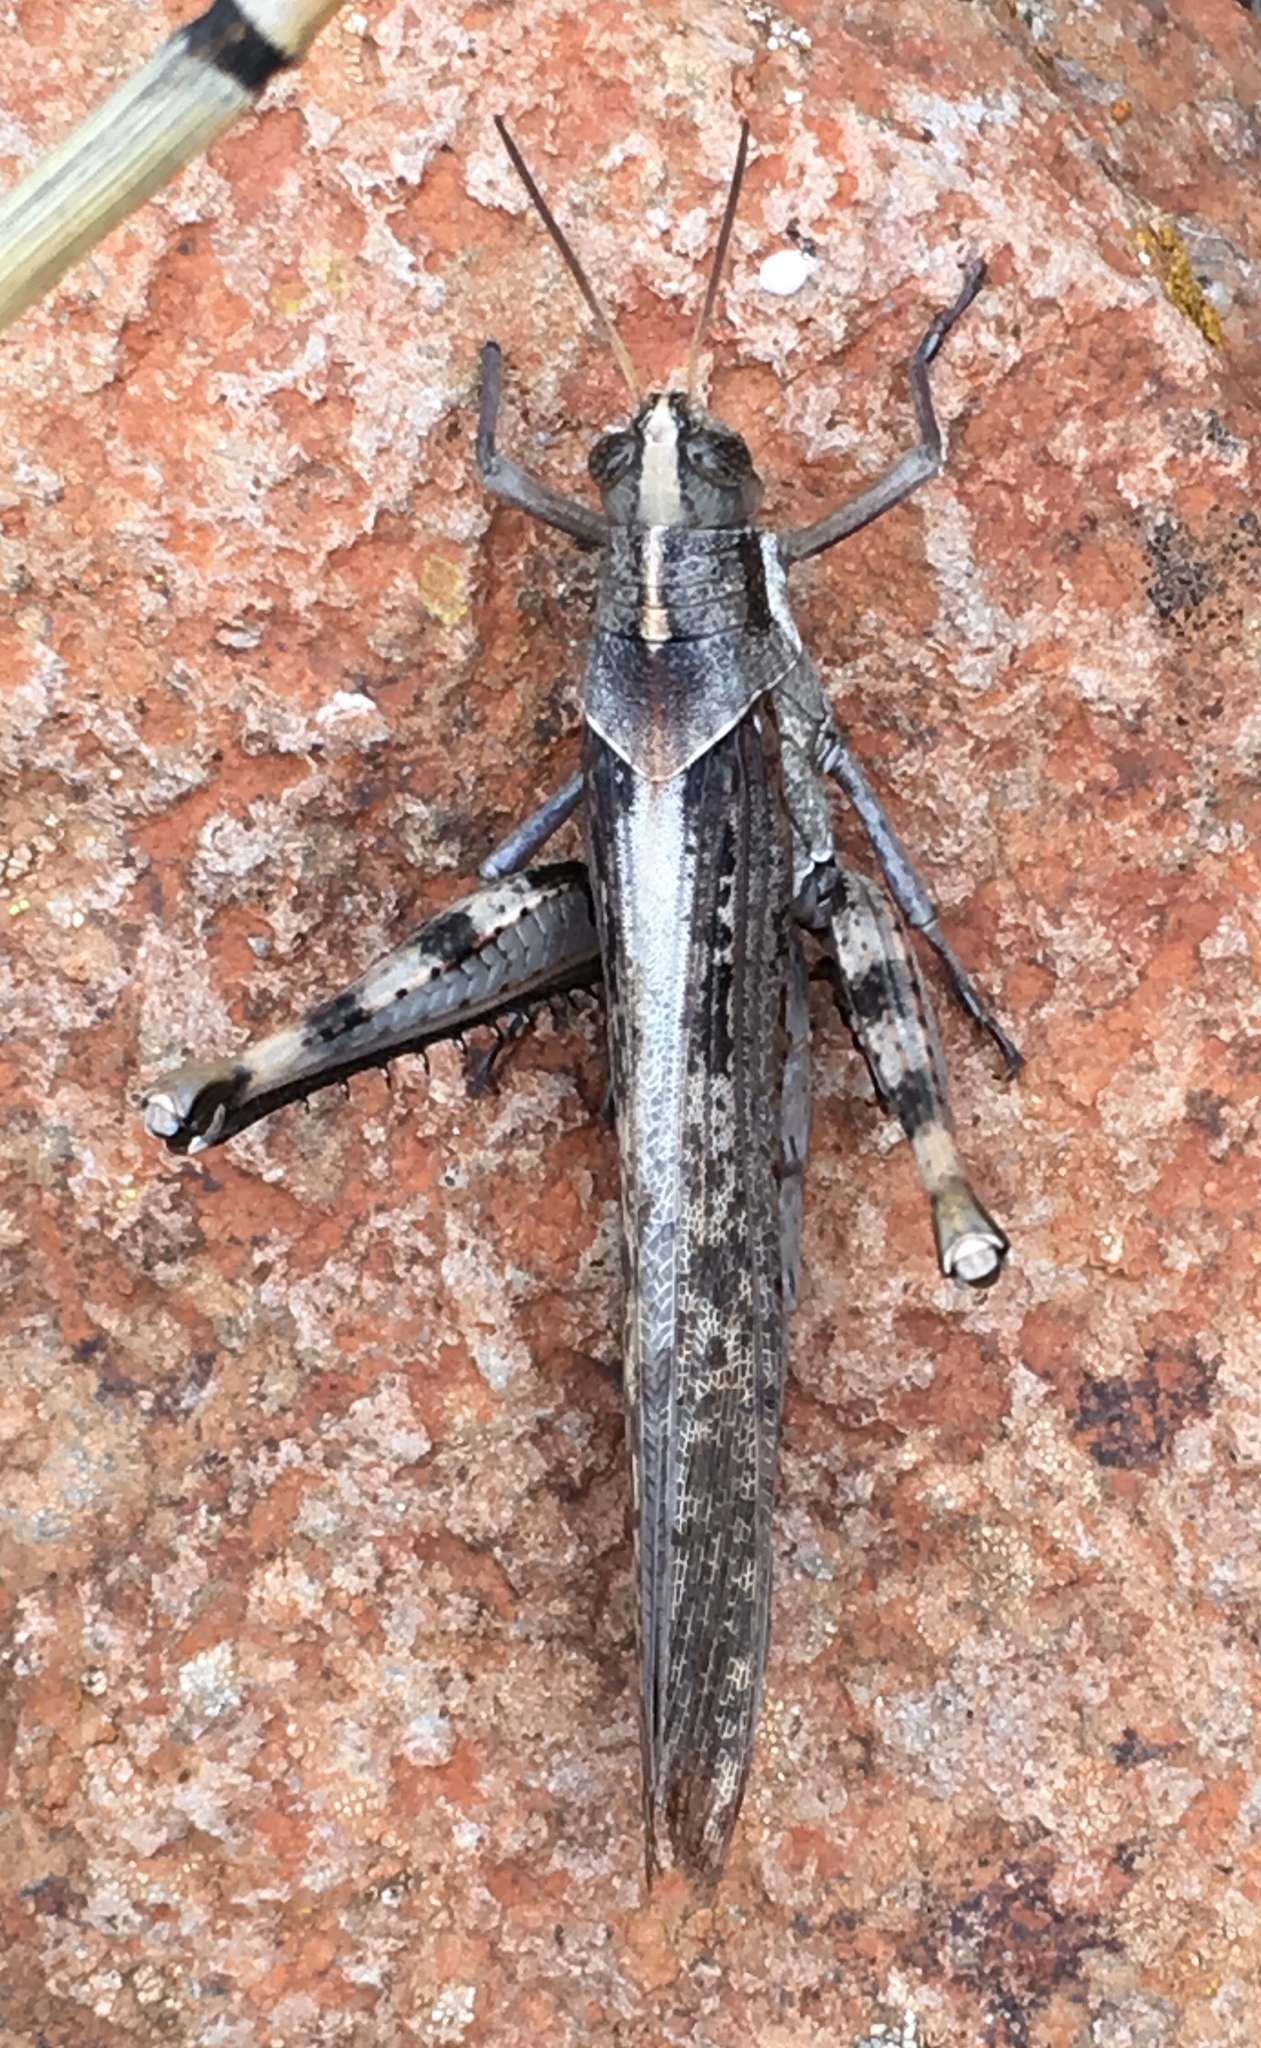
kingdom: Animalia
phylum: Arthropoda
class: Insecta
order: Orthoptera
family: Acrididae
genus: Schistocerca
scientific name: Schistocerca nitens
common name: Vagrant grasshopper
